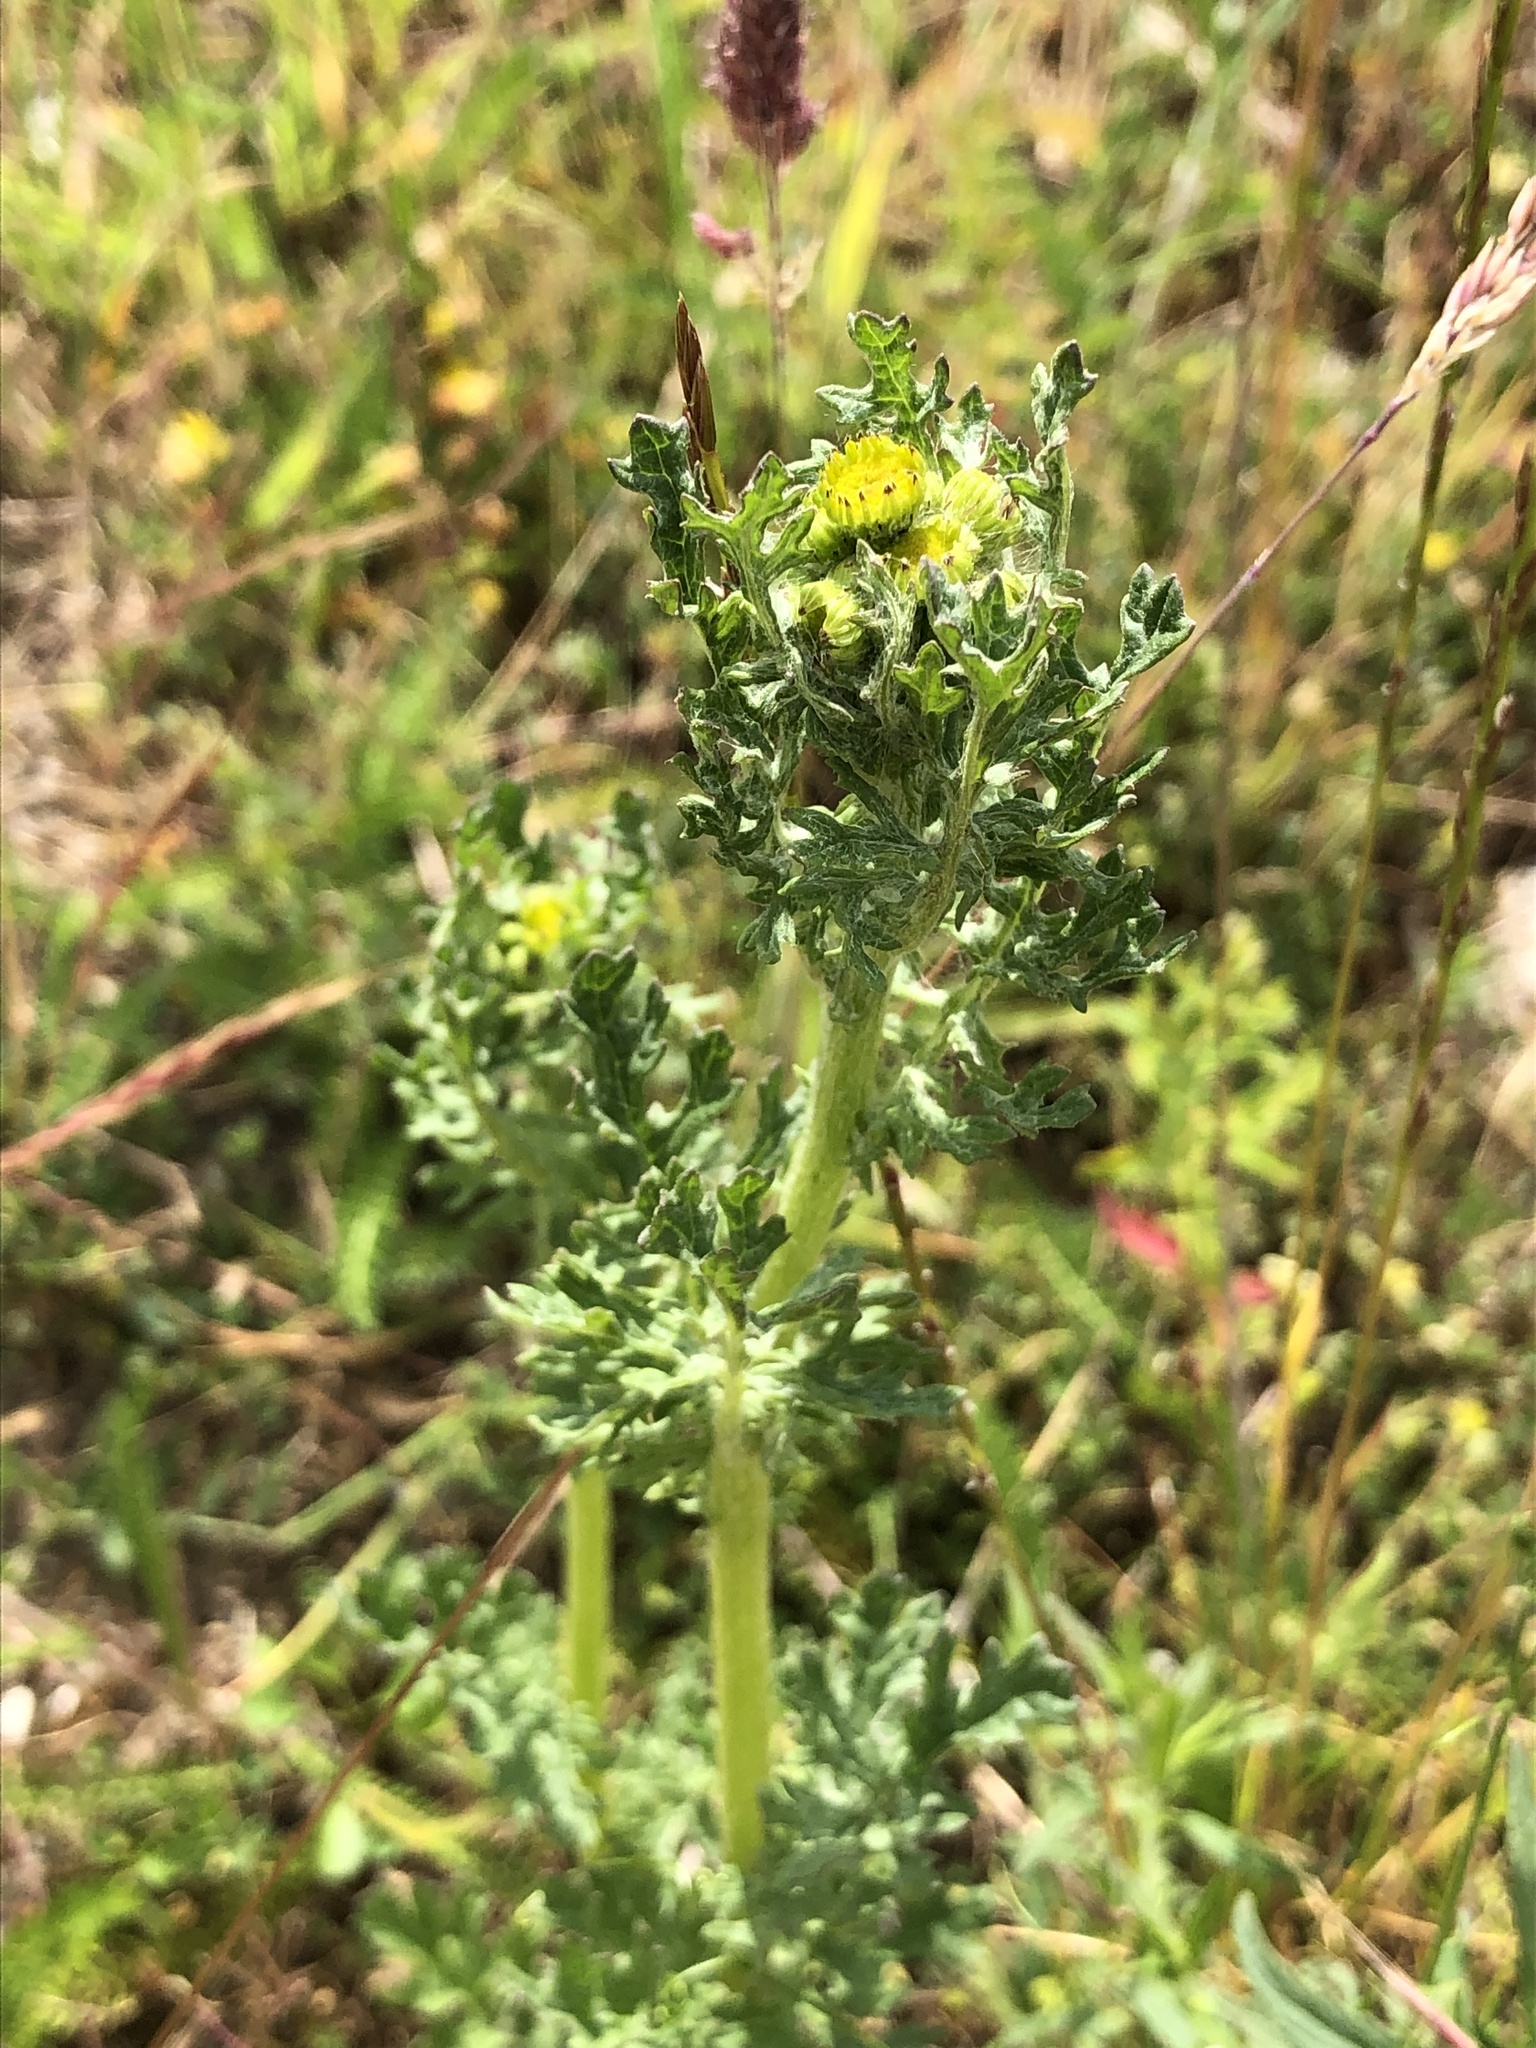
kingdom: Plantae
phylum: Tracheophyta
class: Magnoliopsida
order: Asterales
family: Asteraceae
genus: Jacobaea
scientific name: Jacobaea vulgaris
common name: Stinking willie
